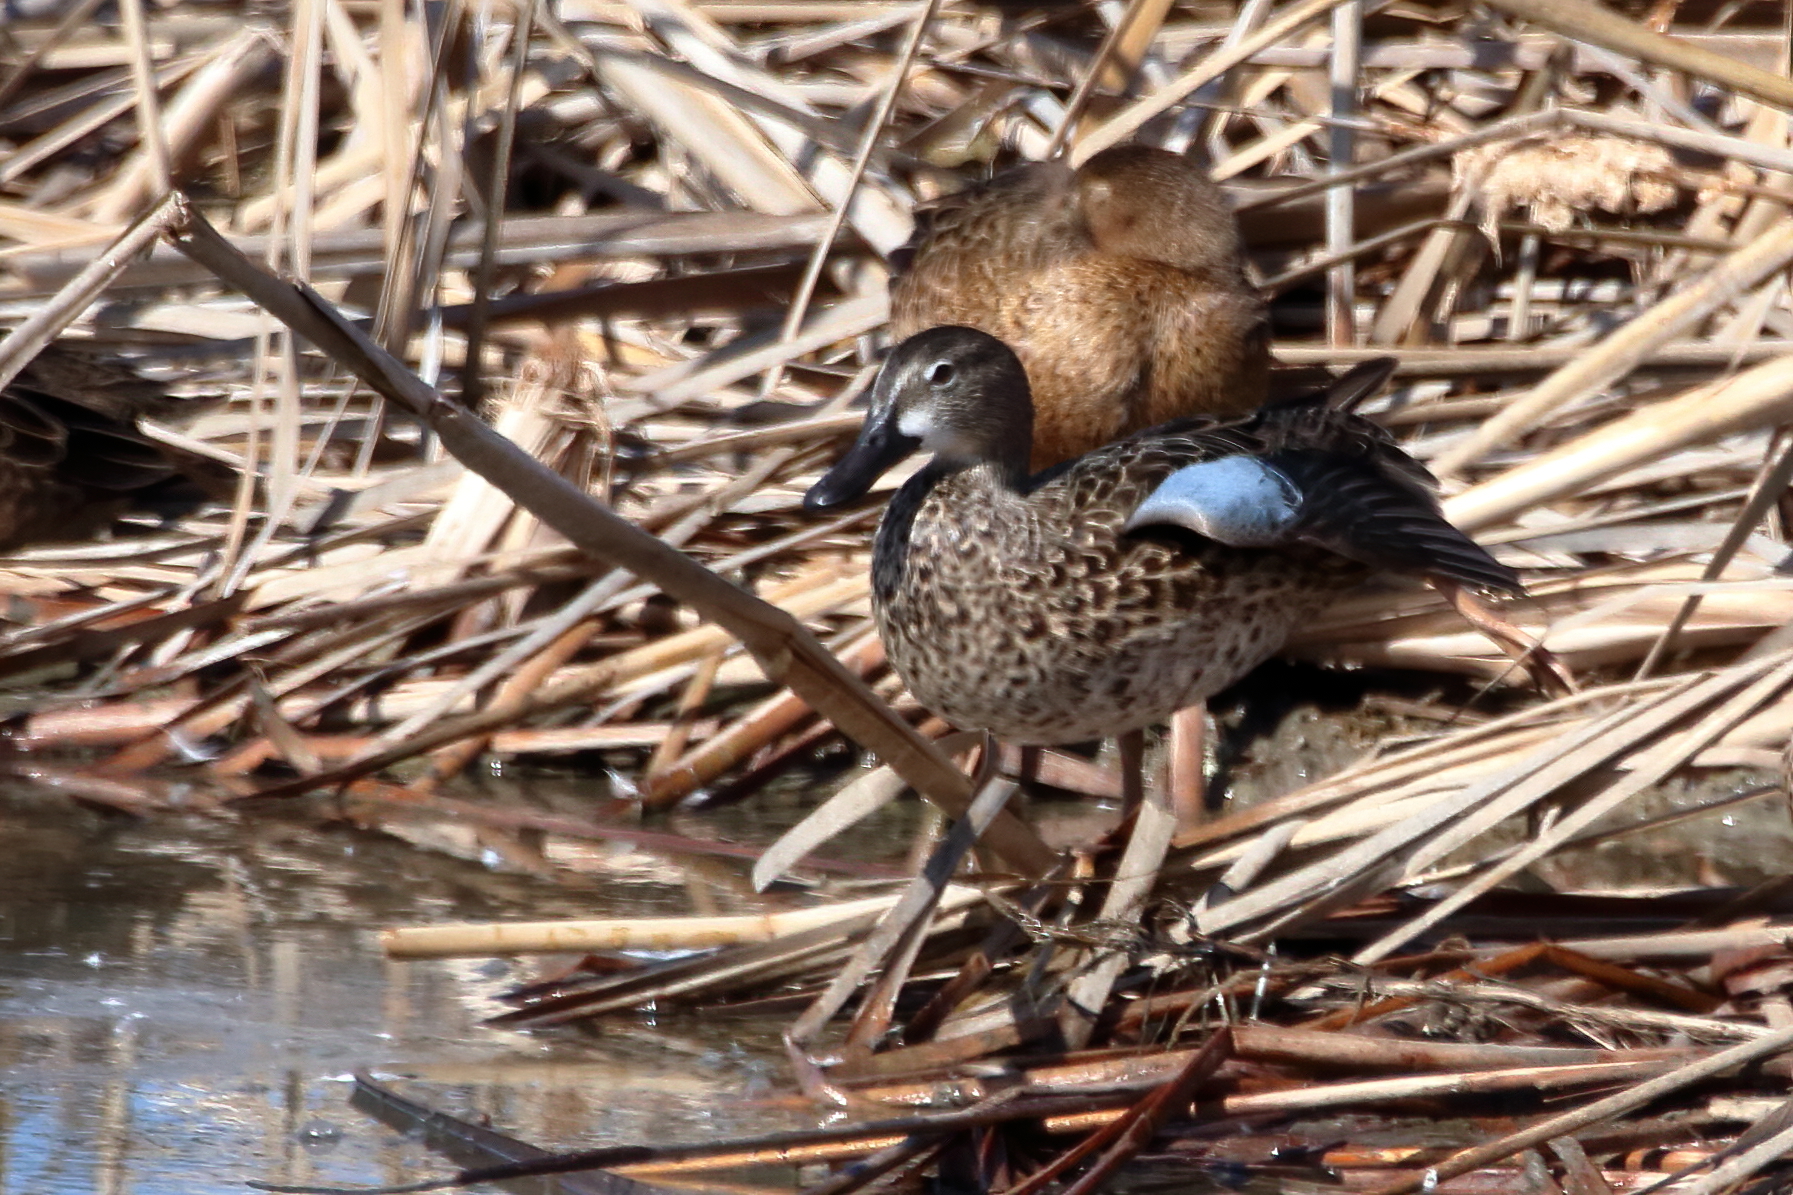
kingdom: Animalia
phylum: Chordata
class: Aves
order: Anseriformes
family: Anatidae
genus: Spatula
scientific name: Spatula discors
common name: Blue-winged teal
